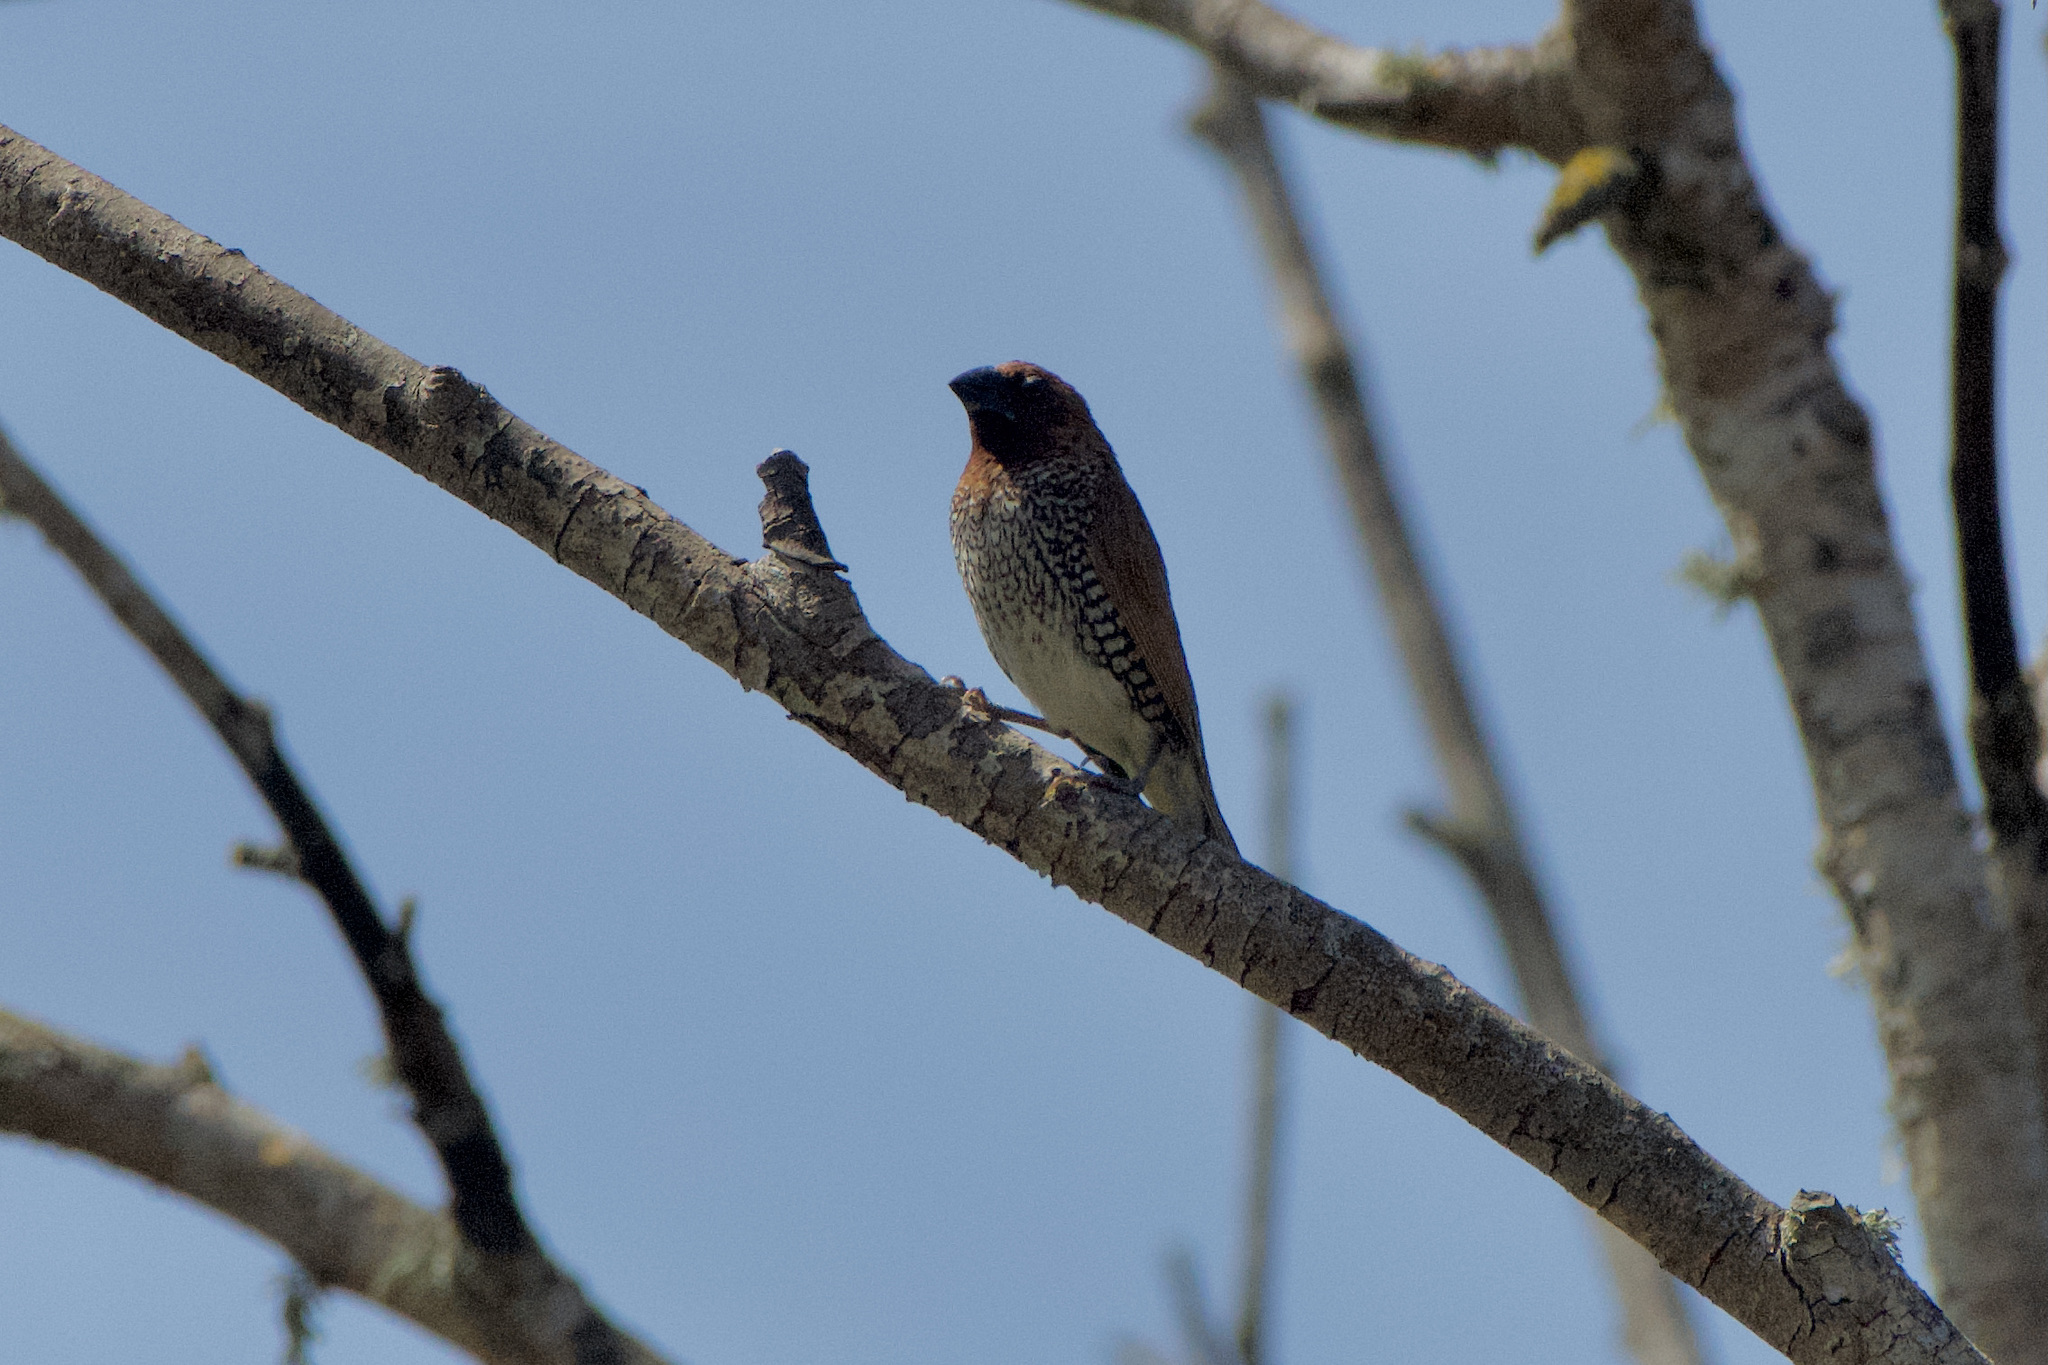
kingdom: Animalia
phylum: Chordata
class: Aves
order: Passeriformes
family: Estrildidae
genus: Lonchura
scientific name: Lonchura punctulata
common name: Scaly-breasted munia
